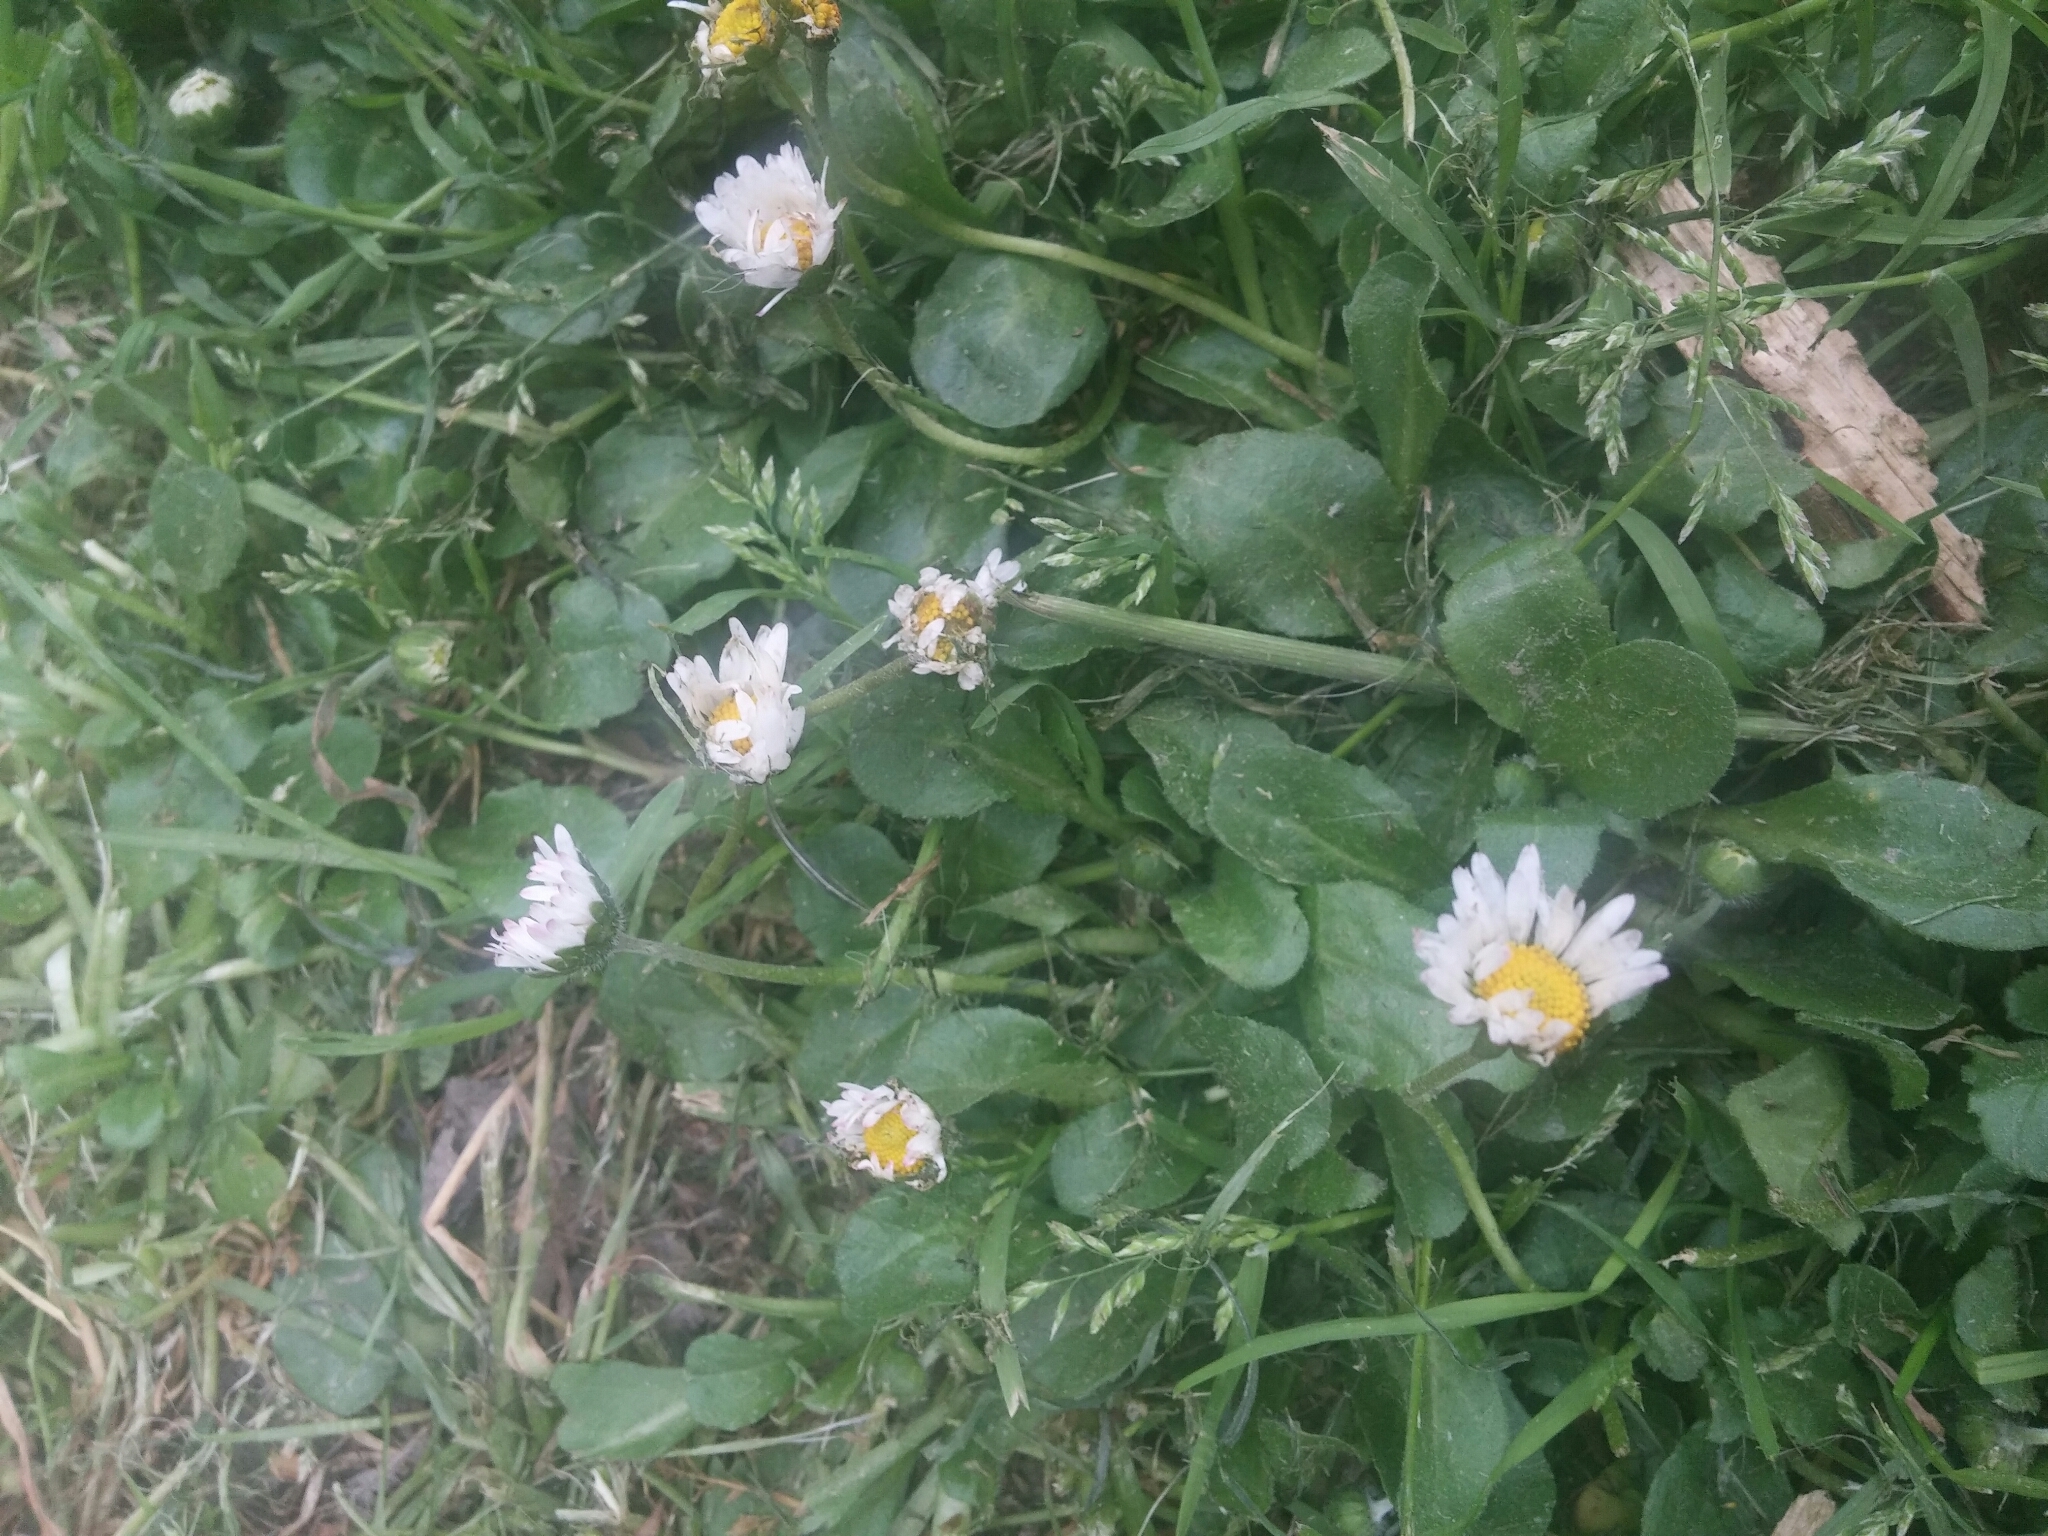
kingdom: Plantae
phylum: Tracheophyta
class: Magnoliopsida
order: Asterales
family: Asteraceae
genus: Bellis
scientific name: Bellis perennis
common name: Lawndaisy
